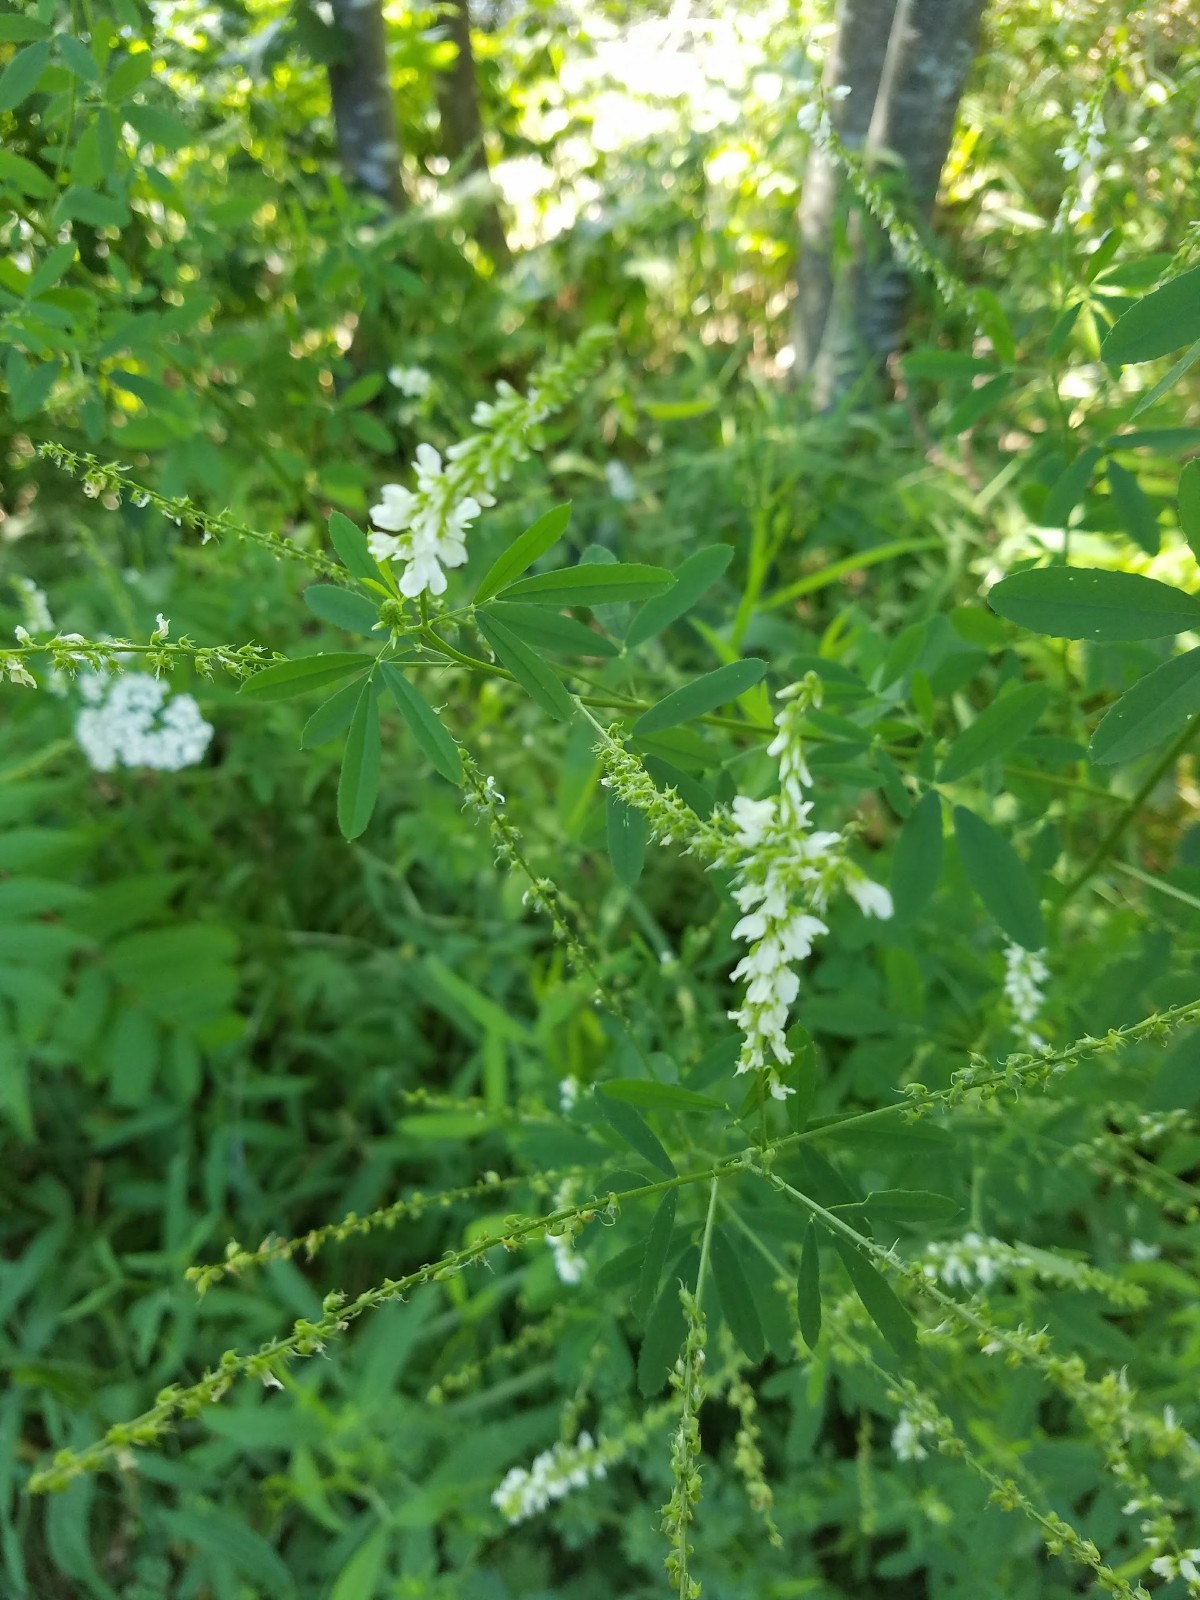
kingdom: Plantae
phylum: Tracheophyta
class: Magnoliopsida
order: Fabales
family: Fabaceae
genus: Melilotus
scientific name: Melilotus albus
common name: White melilot
